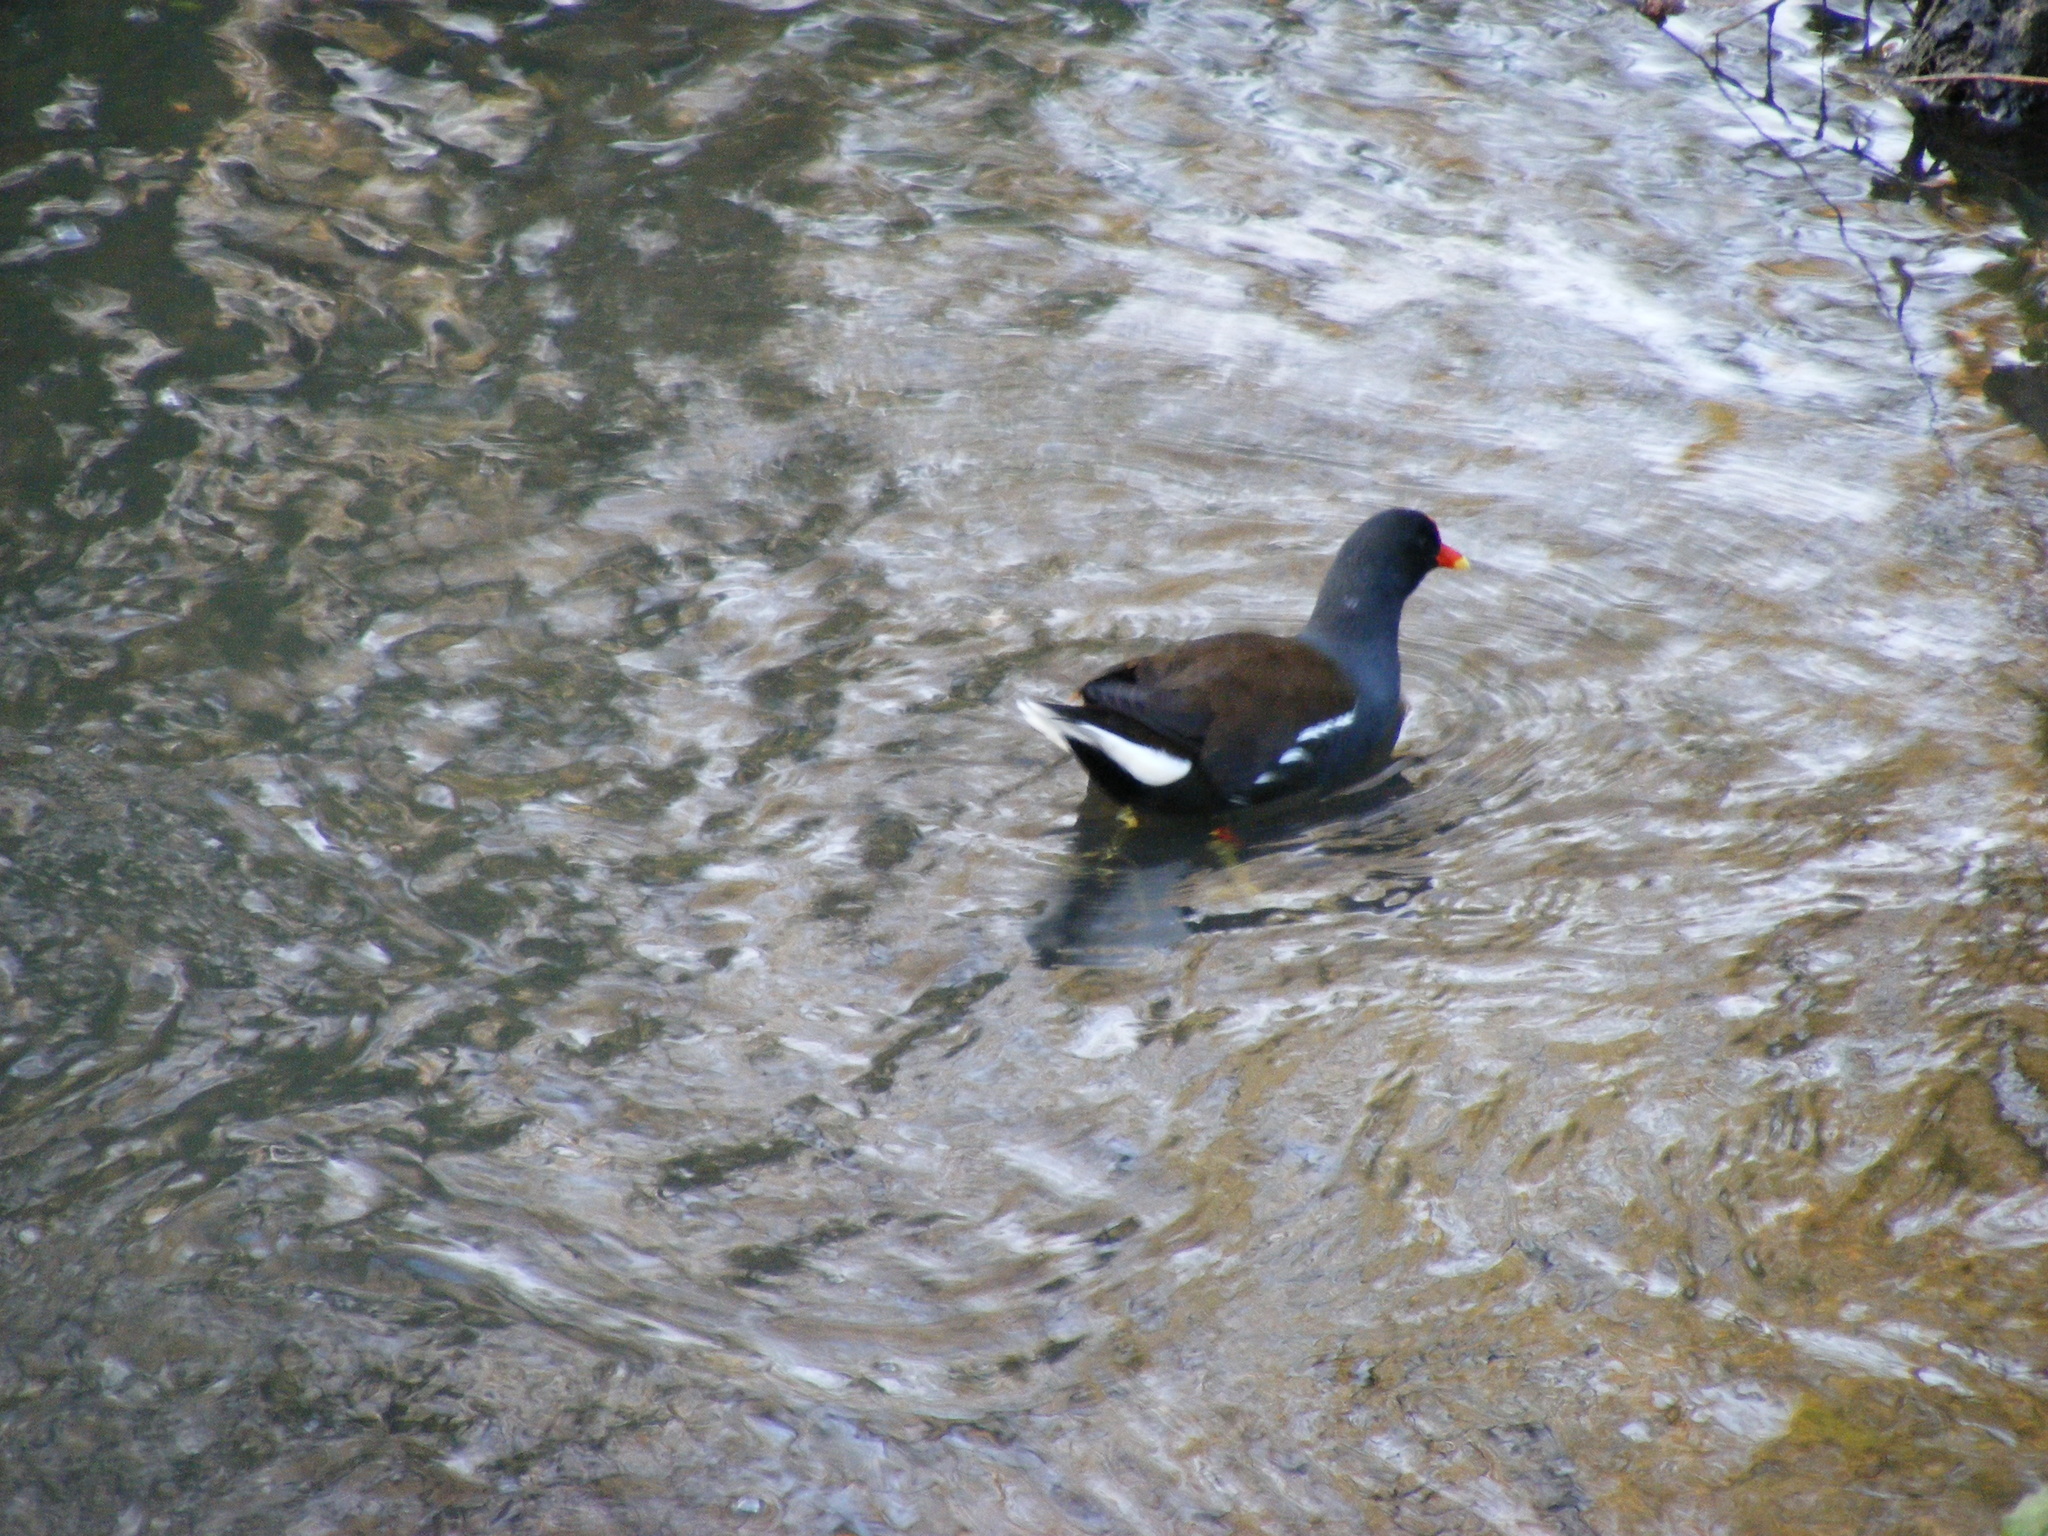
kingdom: Animalia
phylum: Chordata
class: Aves
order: Gruiformes
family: Rallidae
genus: Gallinula
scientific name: Gallinula chloropus
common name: Common moorhen
